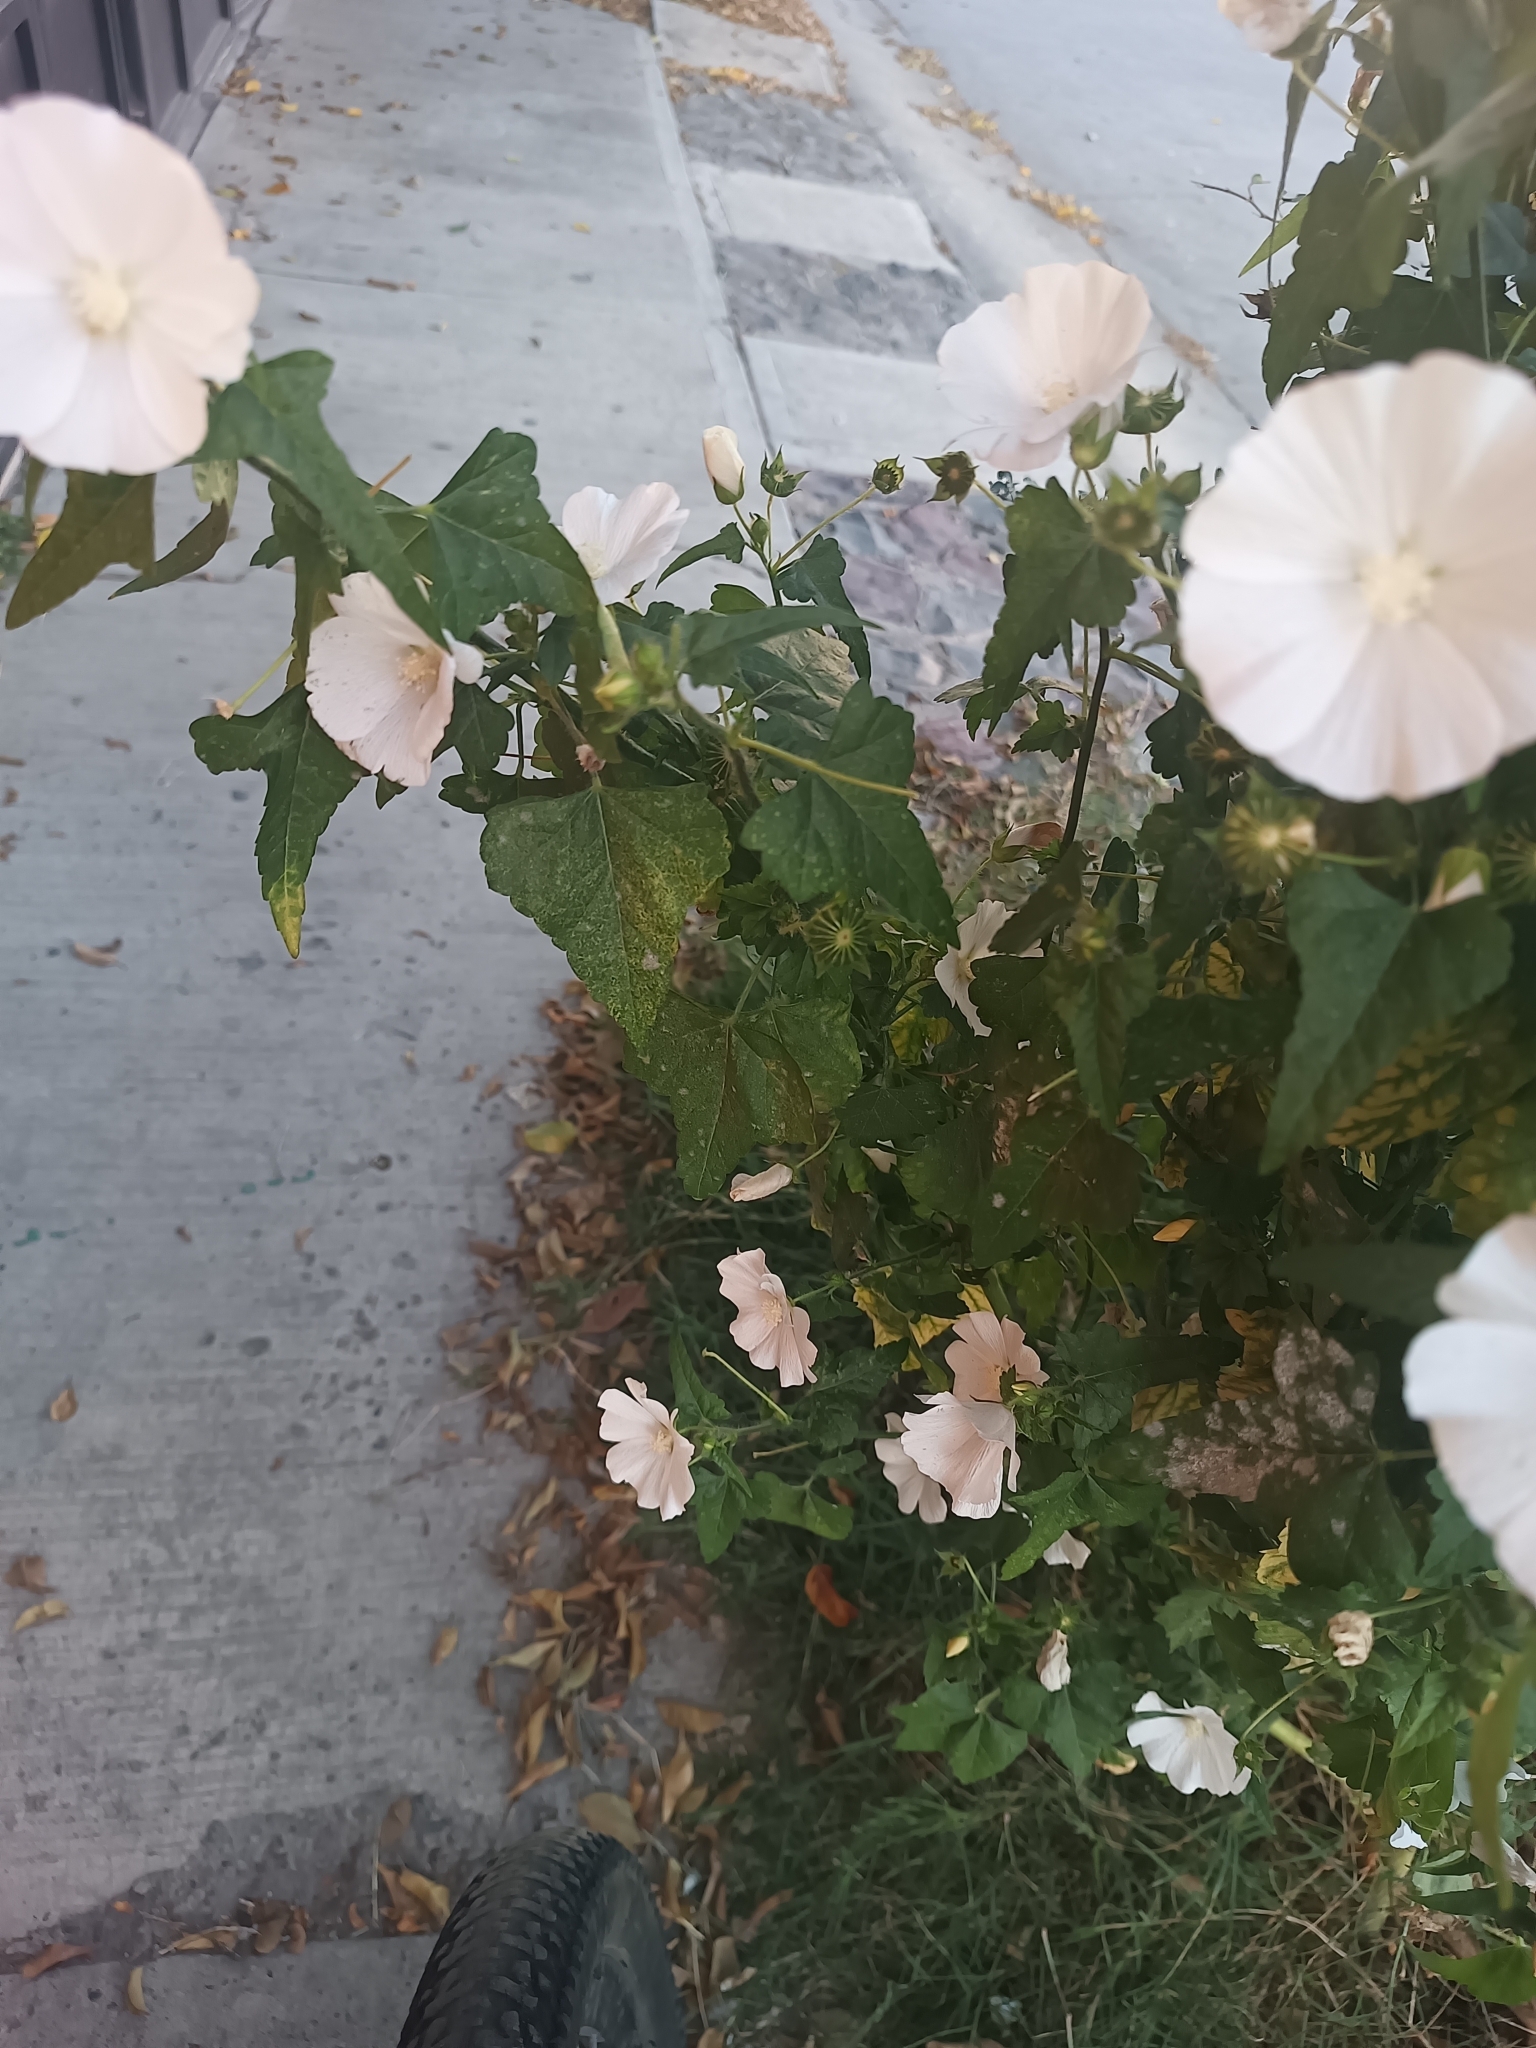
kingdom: Plantae
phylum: Tracheophyta
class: Magnoliopsida
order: Malvales
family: Malvaceae
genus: Anoda
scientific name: Anoda albiflora
